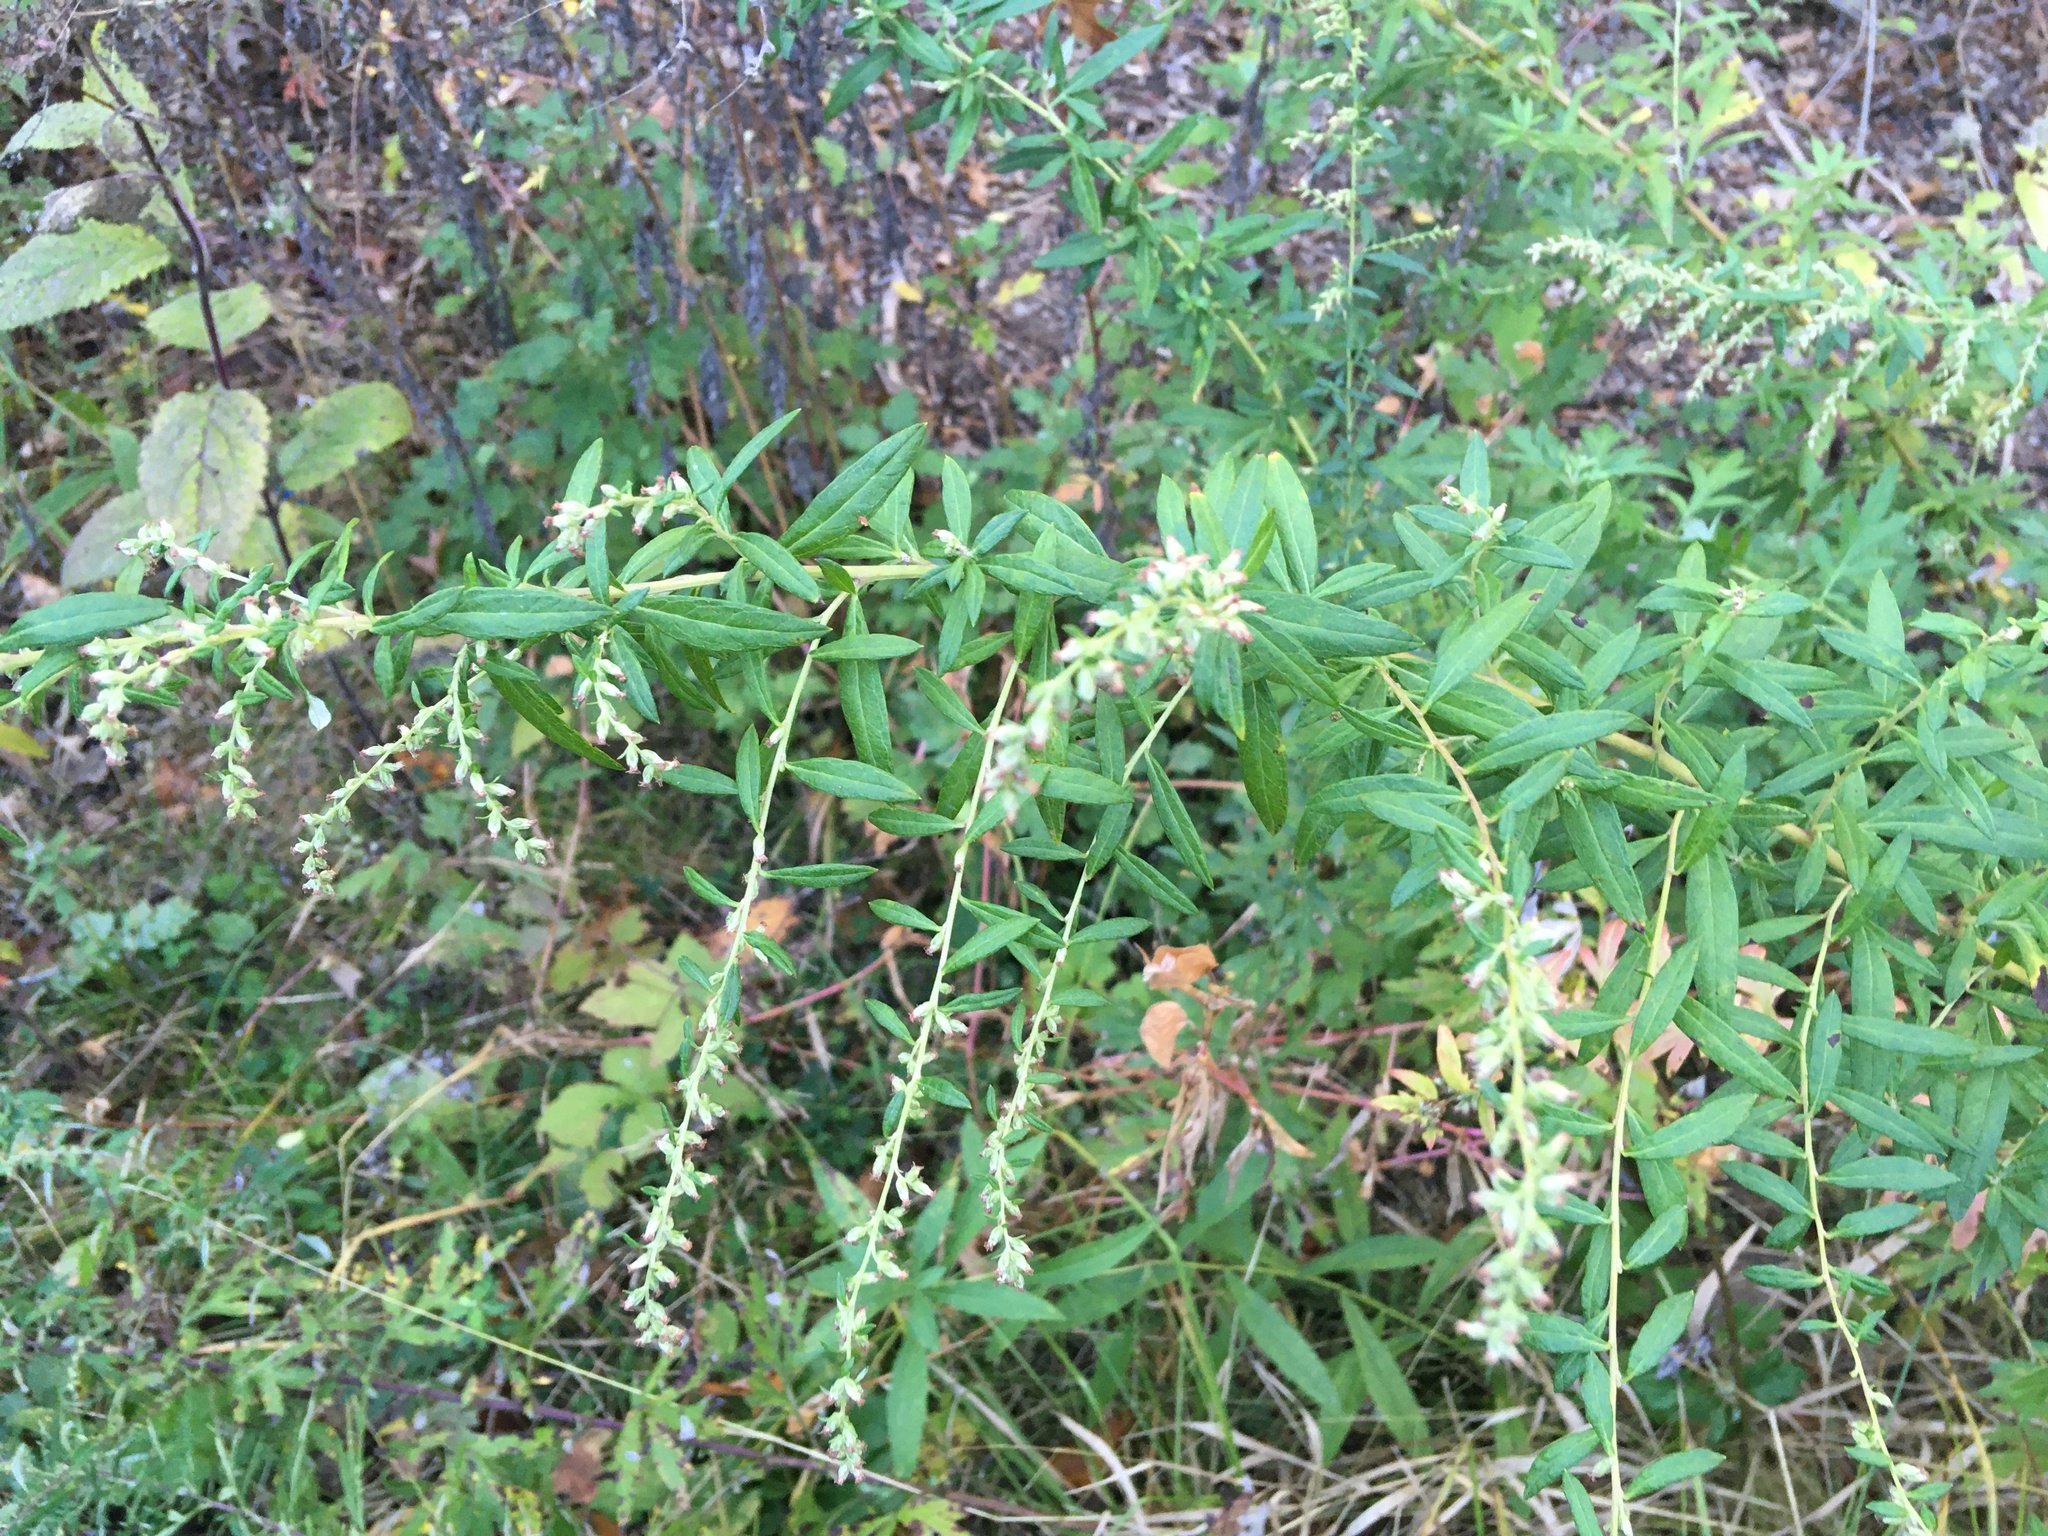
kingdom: Plantae
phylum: Tracheophyta
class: Magnoliopsida
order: Asterales
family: Asteraceae
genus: Artemisia
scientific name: Artemisia vulgaris
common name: Mugwort
